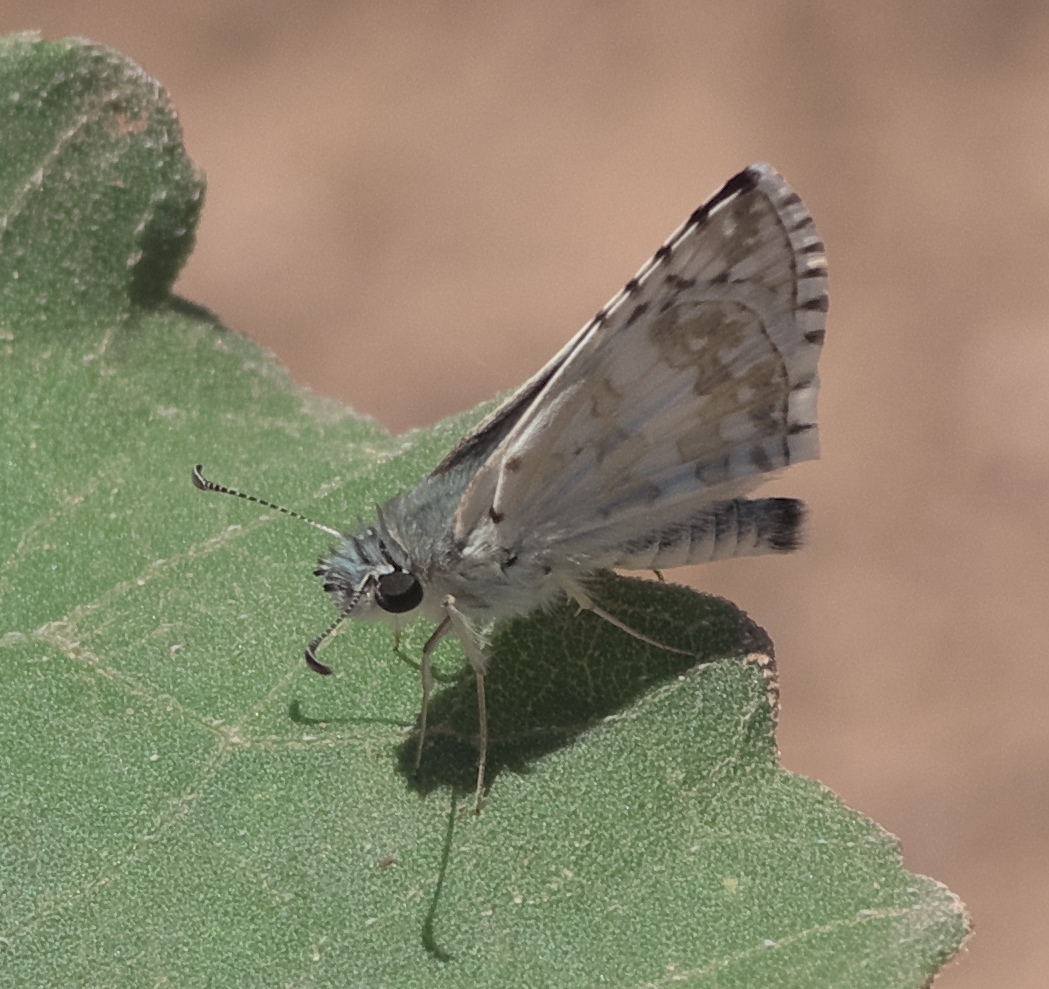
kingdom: Animalia
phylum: Arthropoda
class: Insecta
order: Lepidoptera
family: Hesperiidae
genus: Burnsius
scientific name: Burnsius communis
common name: Common checkered-skipper
